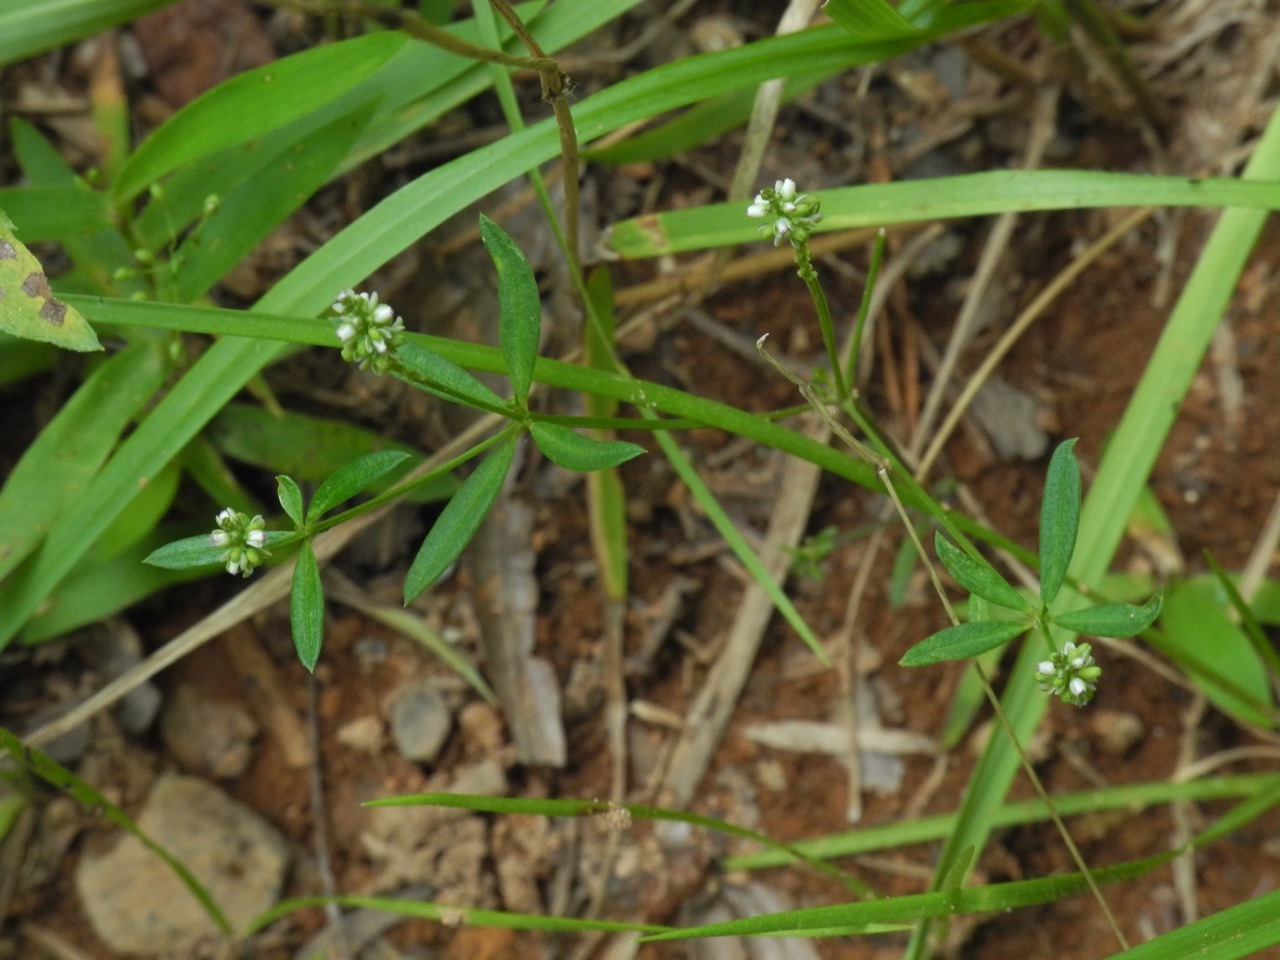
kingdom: Plantae
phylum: Tracheophyta
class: Magnoliopsida
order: Fabales
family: Polygalaceae
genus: Polygala
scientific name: Polygala verticillata
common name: Whorl milkwort
